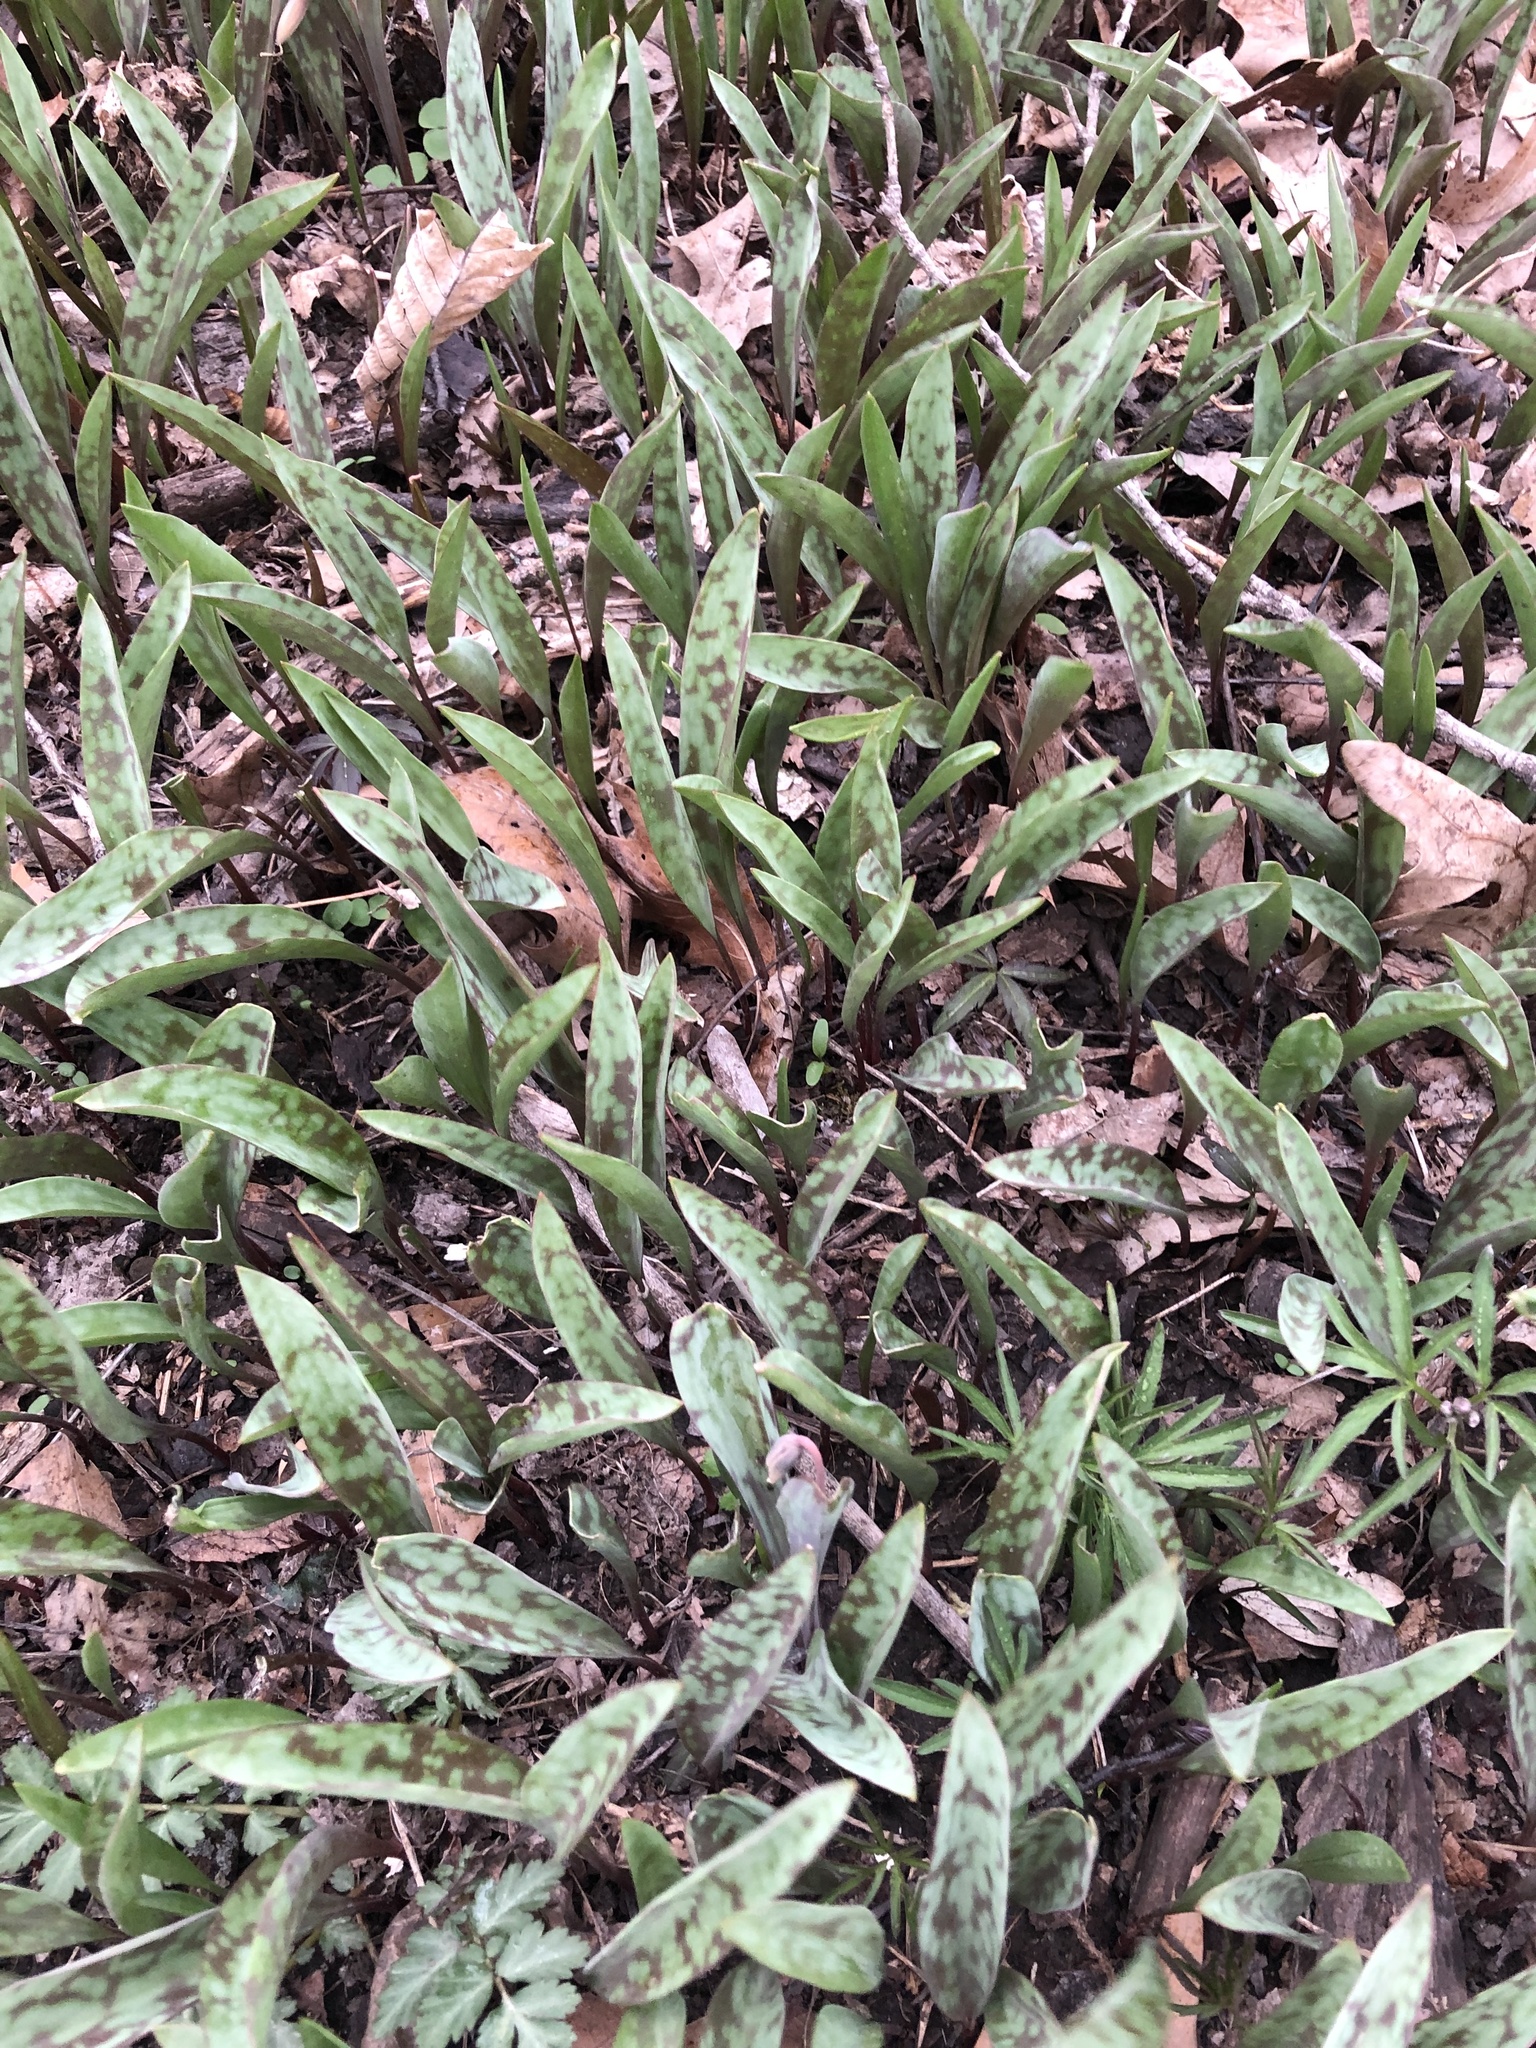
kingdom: Plantae
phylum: Tracheophyta
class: Liliopsida
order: Liliales
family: Liliaceae
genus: Erythronium
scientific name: Erythronium
